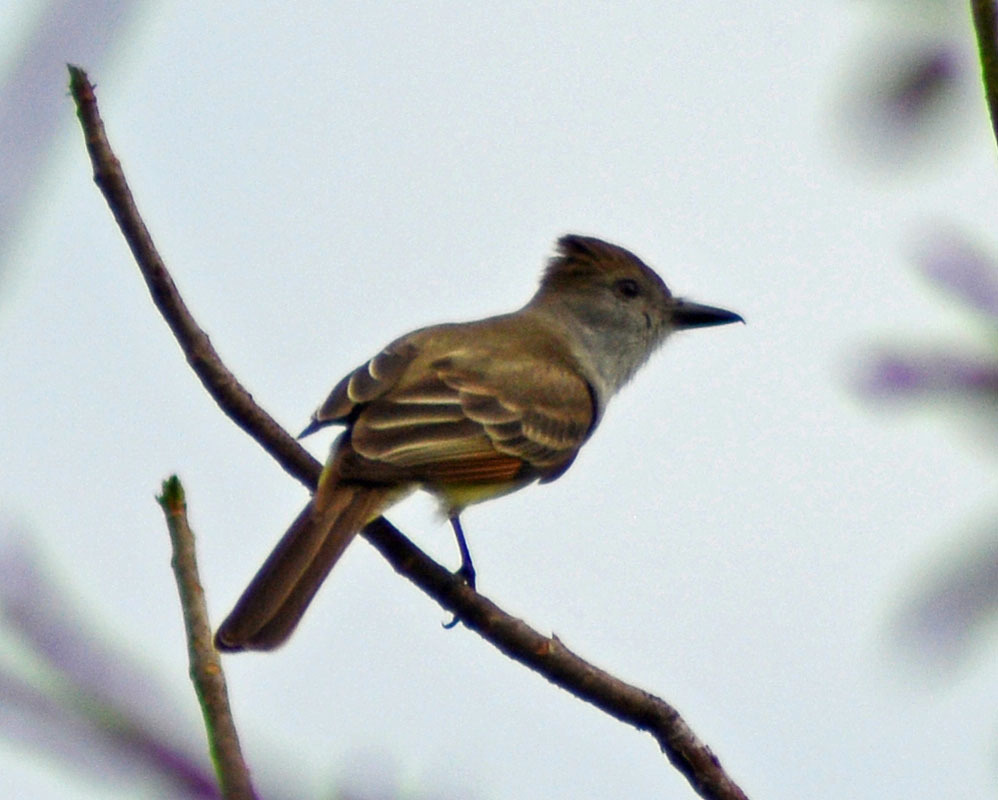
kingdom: Animalia
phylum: Chordata
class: Aves
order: Passeriformes
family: Tyrannidae
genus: Myiarchus
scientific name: Myiarchus tyrannulus
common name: Brown-crested flycatcher
